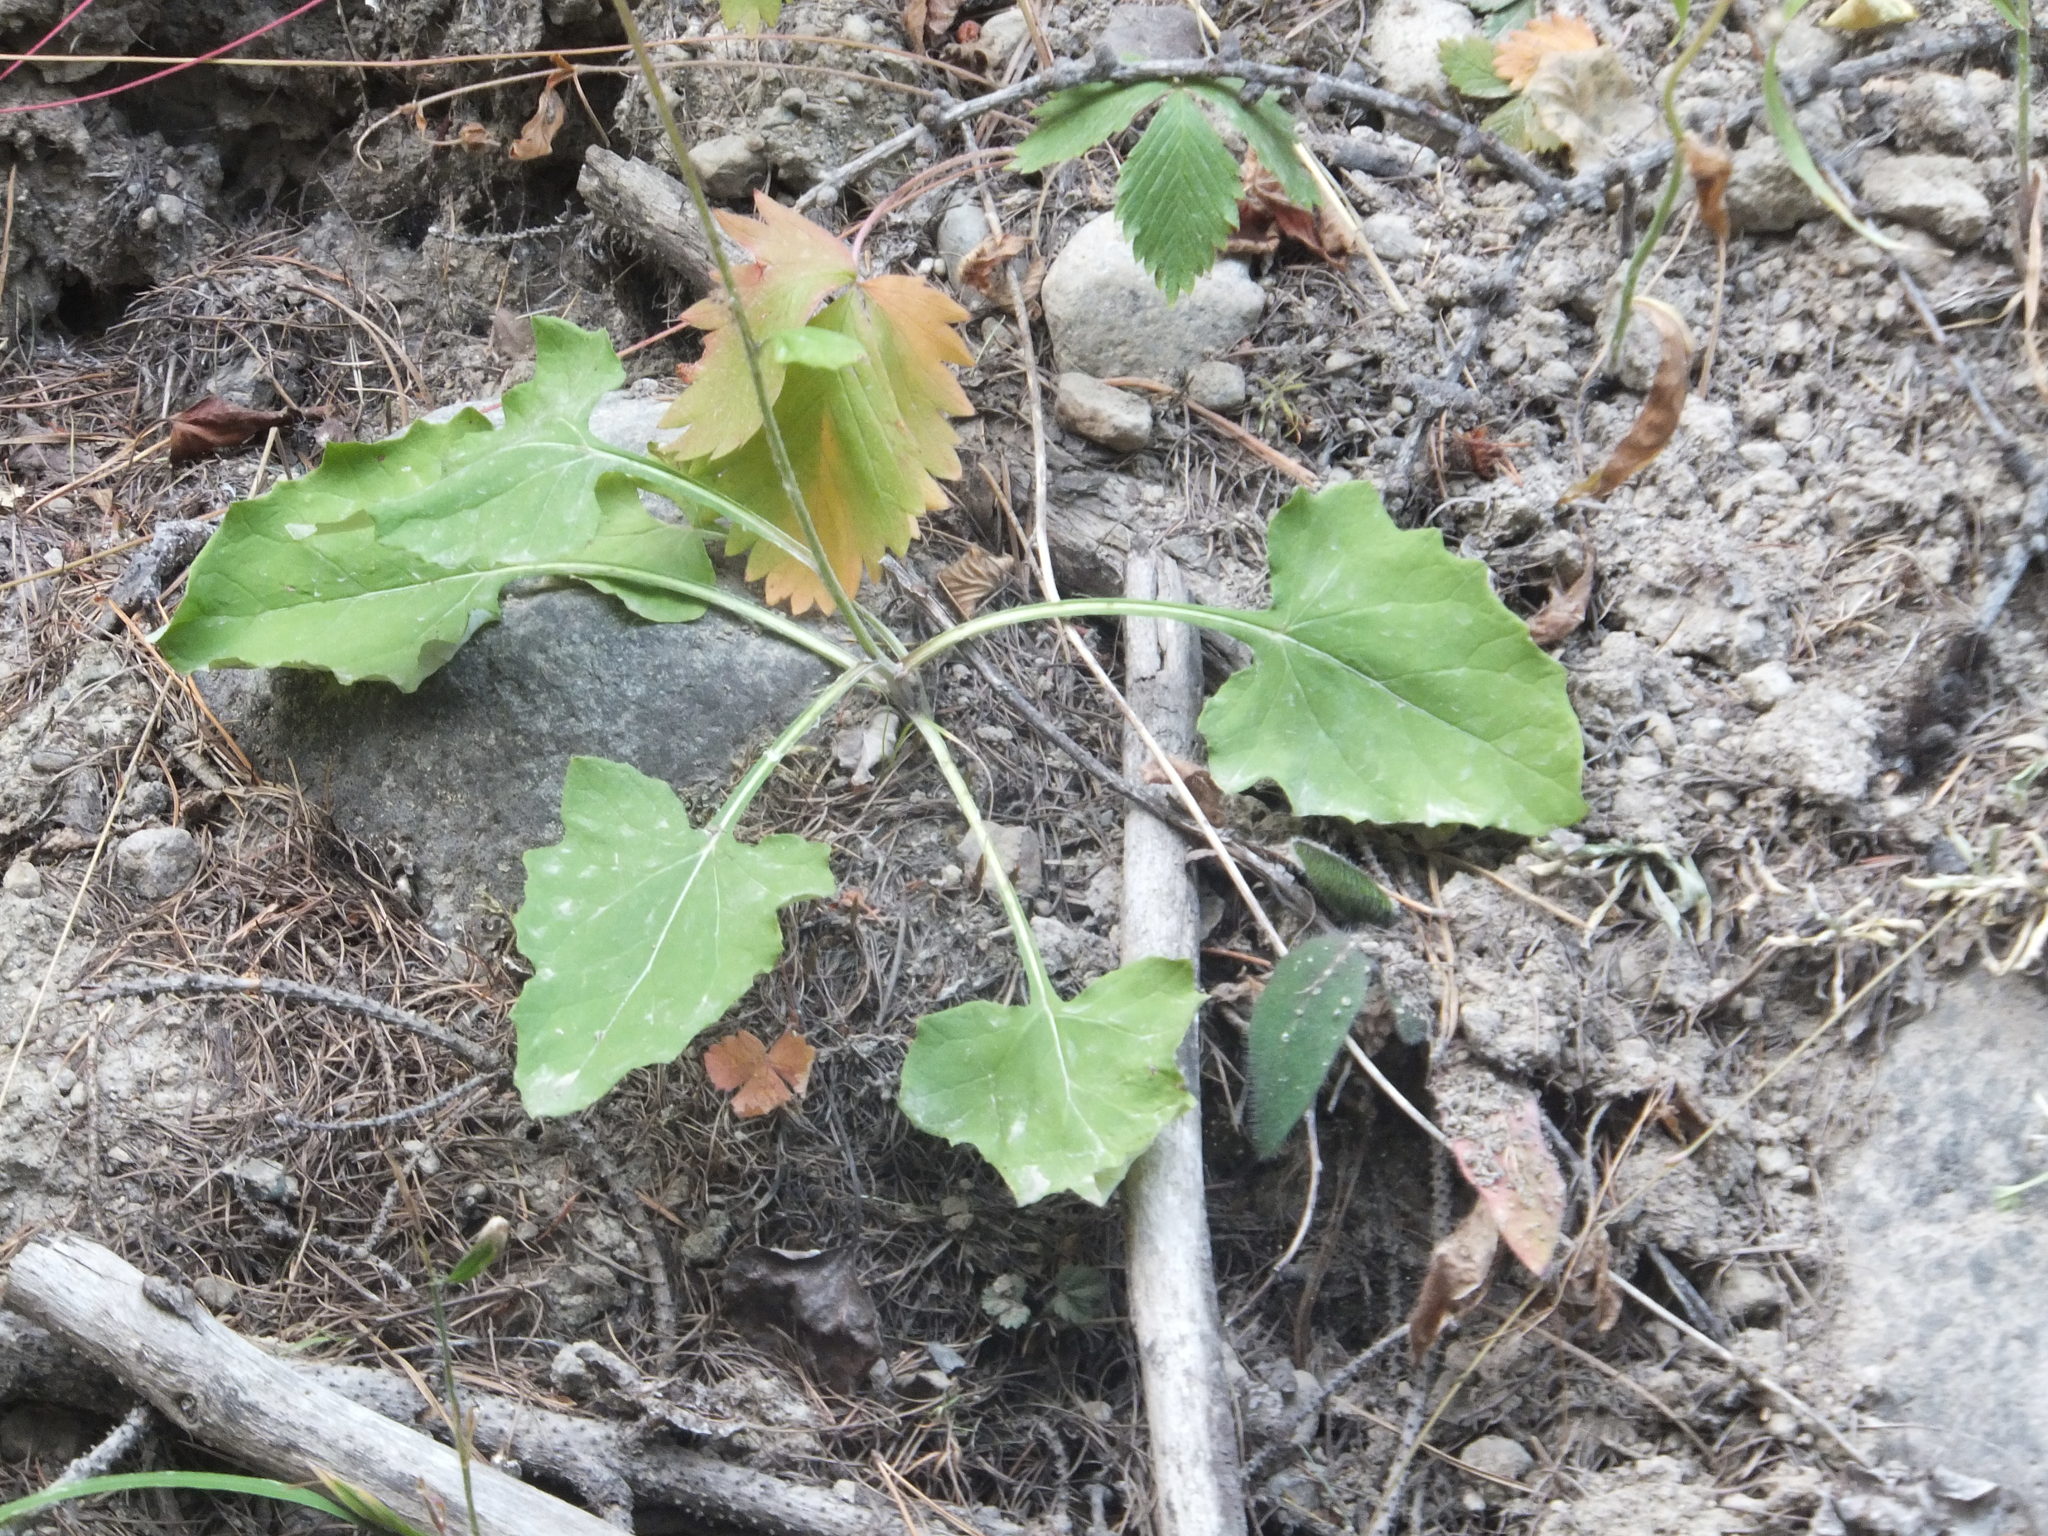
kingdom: Plantae
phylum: Tracheophyta
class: Magnoliopsida
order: Asterales
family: Asteraceae
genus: Adenocaulon
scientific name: Adenocaulon bicolor
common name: Trailplant
